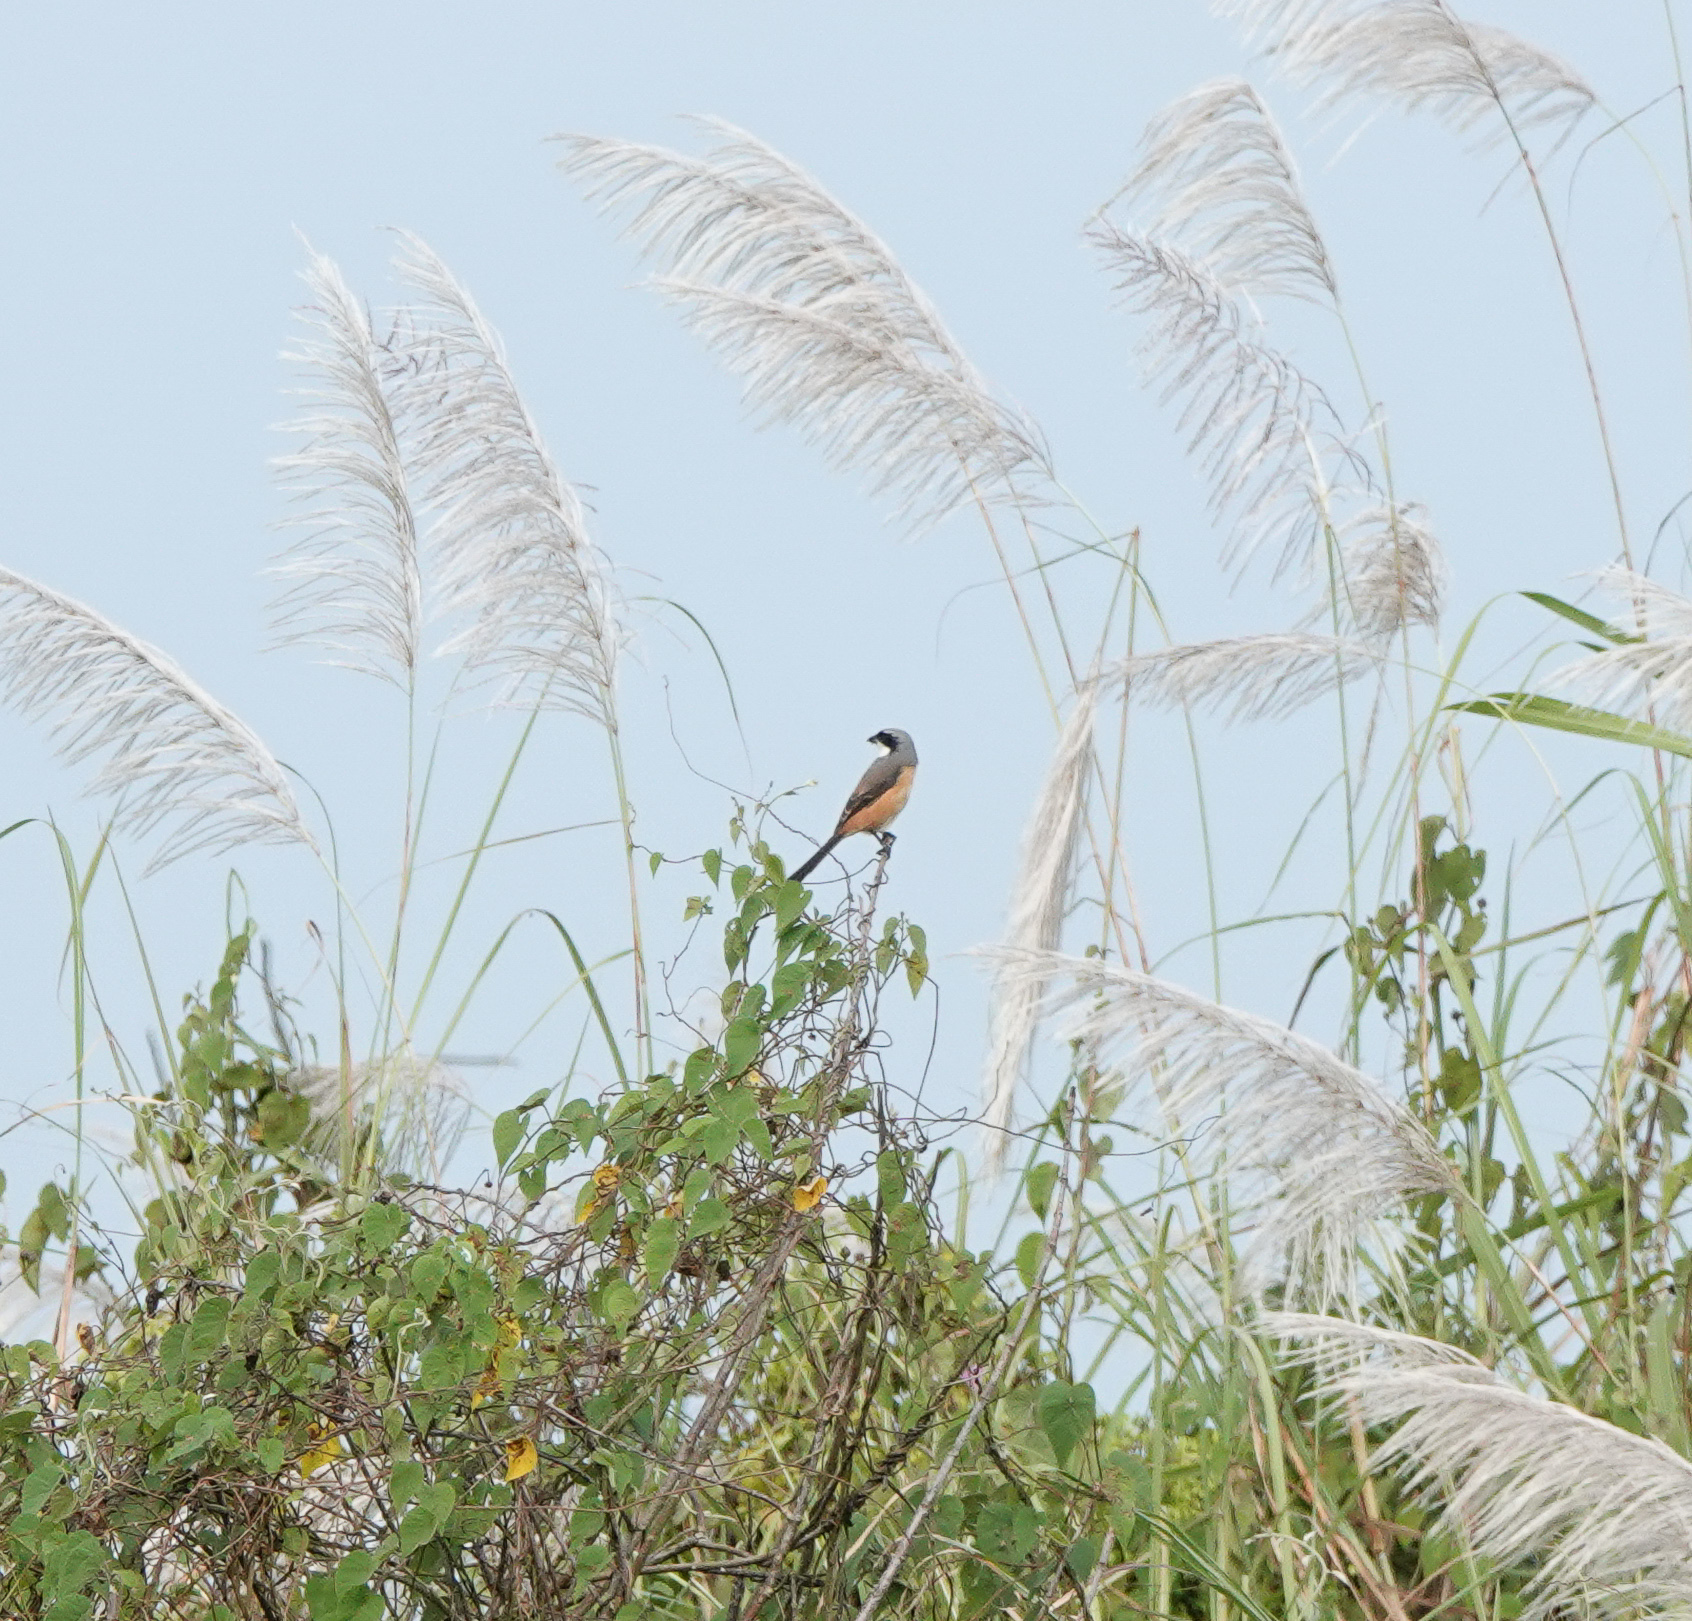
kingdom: Animalia
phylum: Chordata
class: Aves
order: Passeriformes
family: Laniidae
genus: Lanius
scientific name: Lanius tephronotus
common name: Grey-backed shrike
